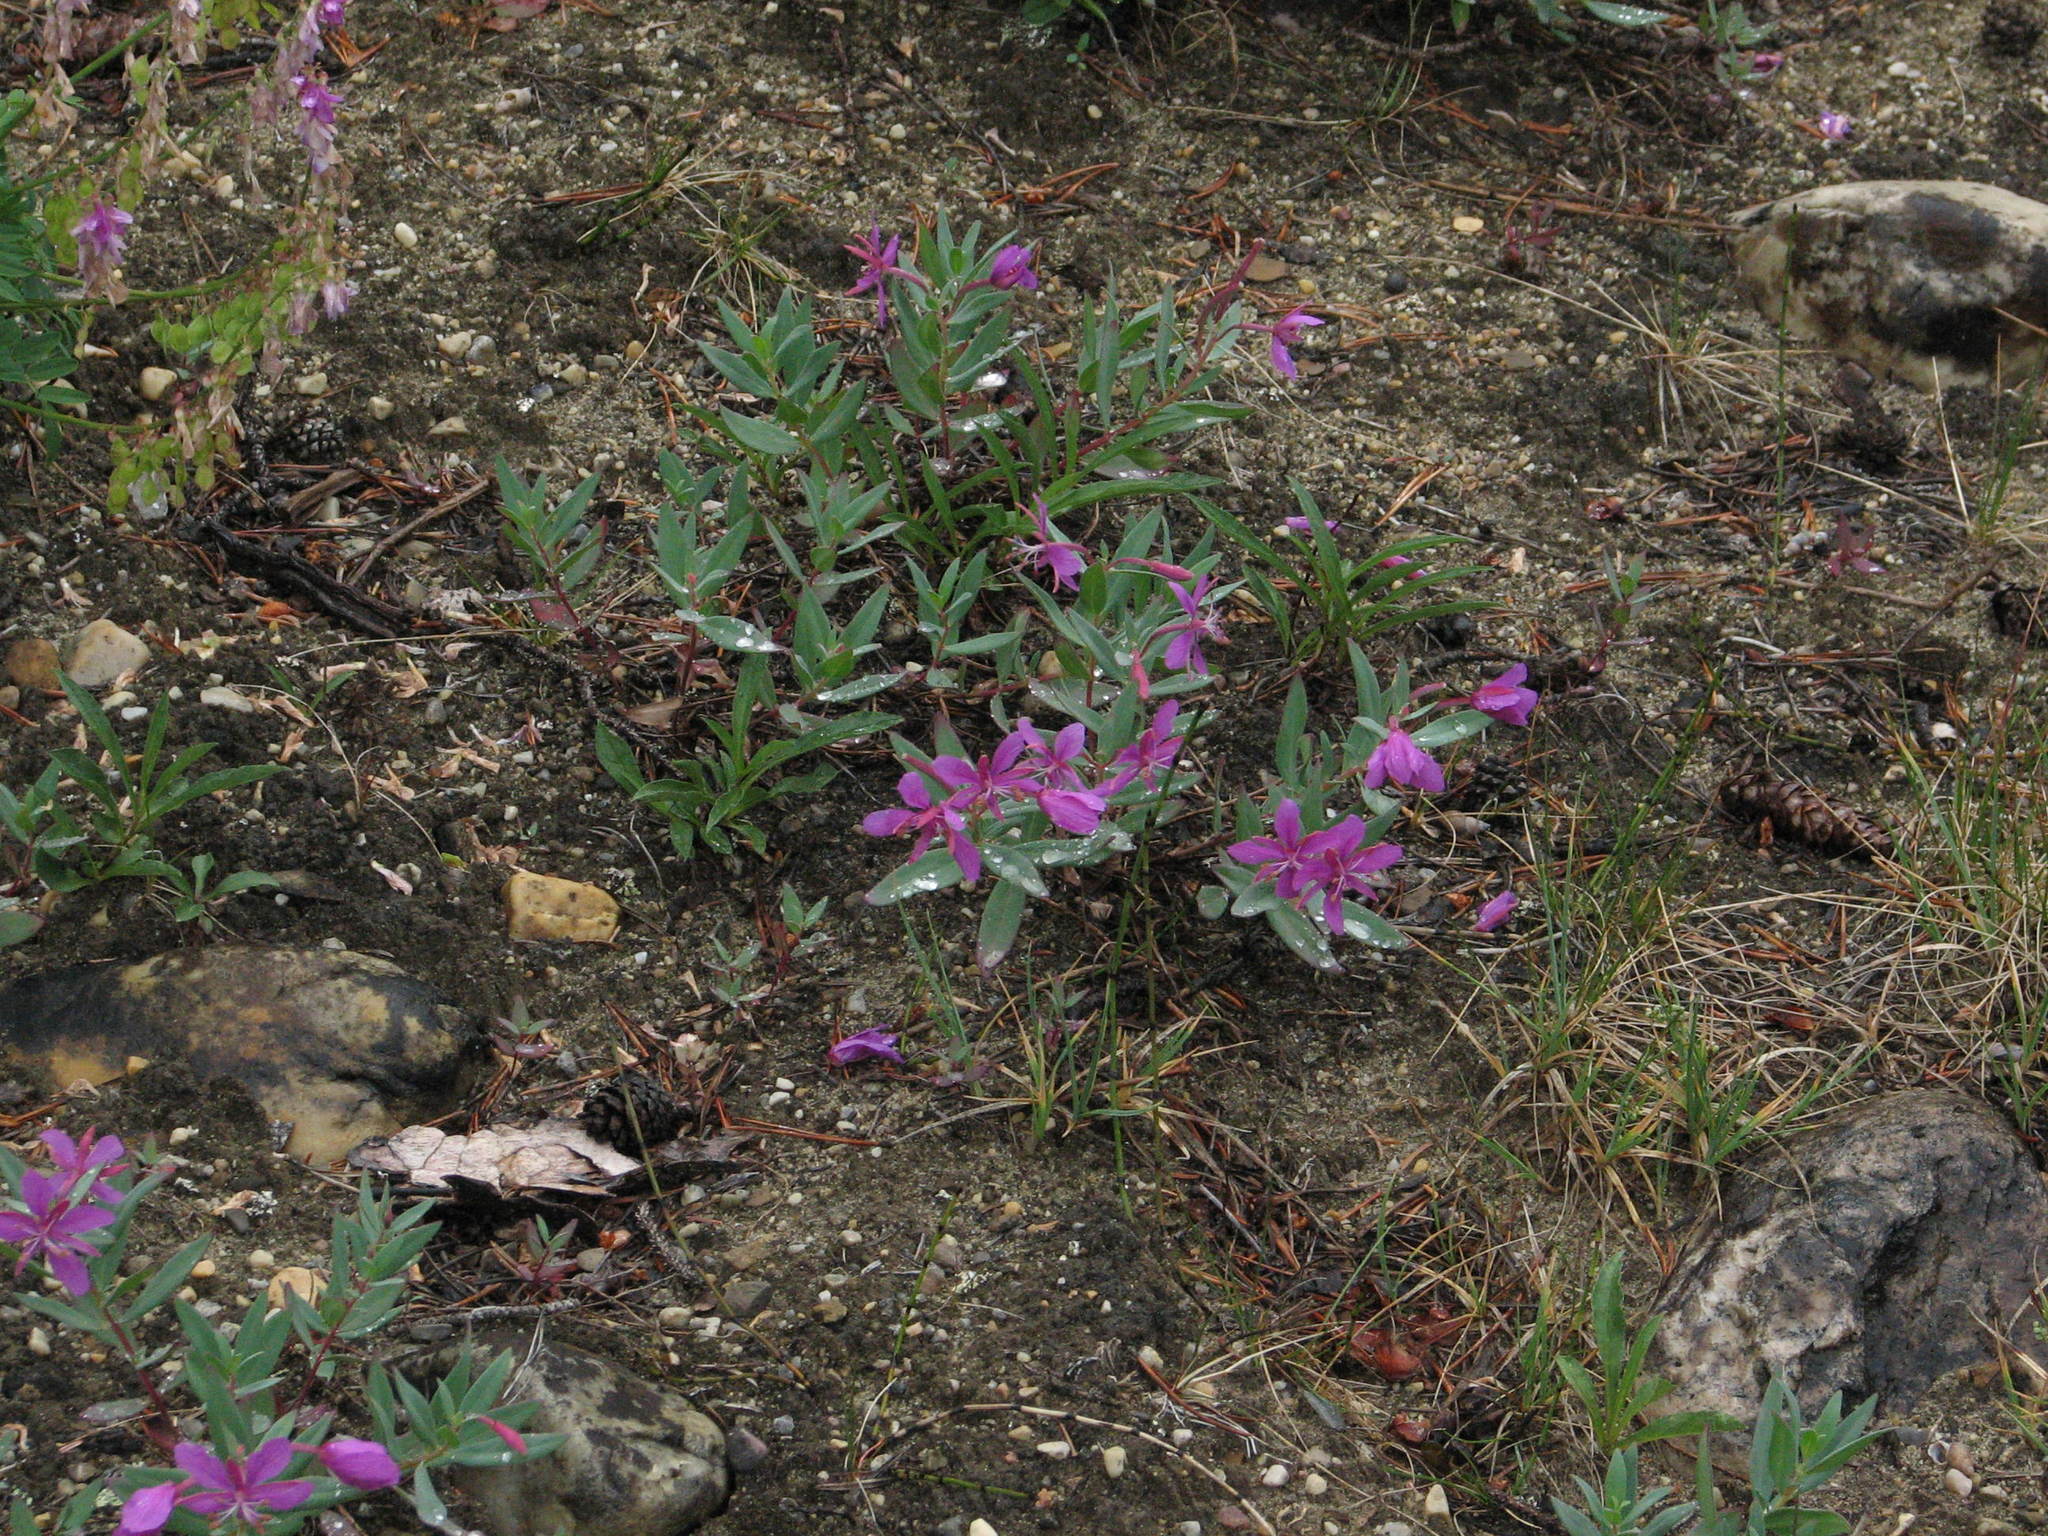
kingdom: Plantae
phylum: Tracheophyta
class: Magnoliopsida
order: Myrtales
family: Onagraceae
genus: Chamaenerion
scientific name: Chamaenerion latifolium
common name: Dwarf fireweed
